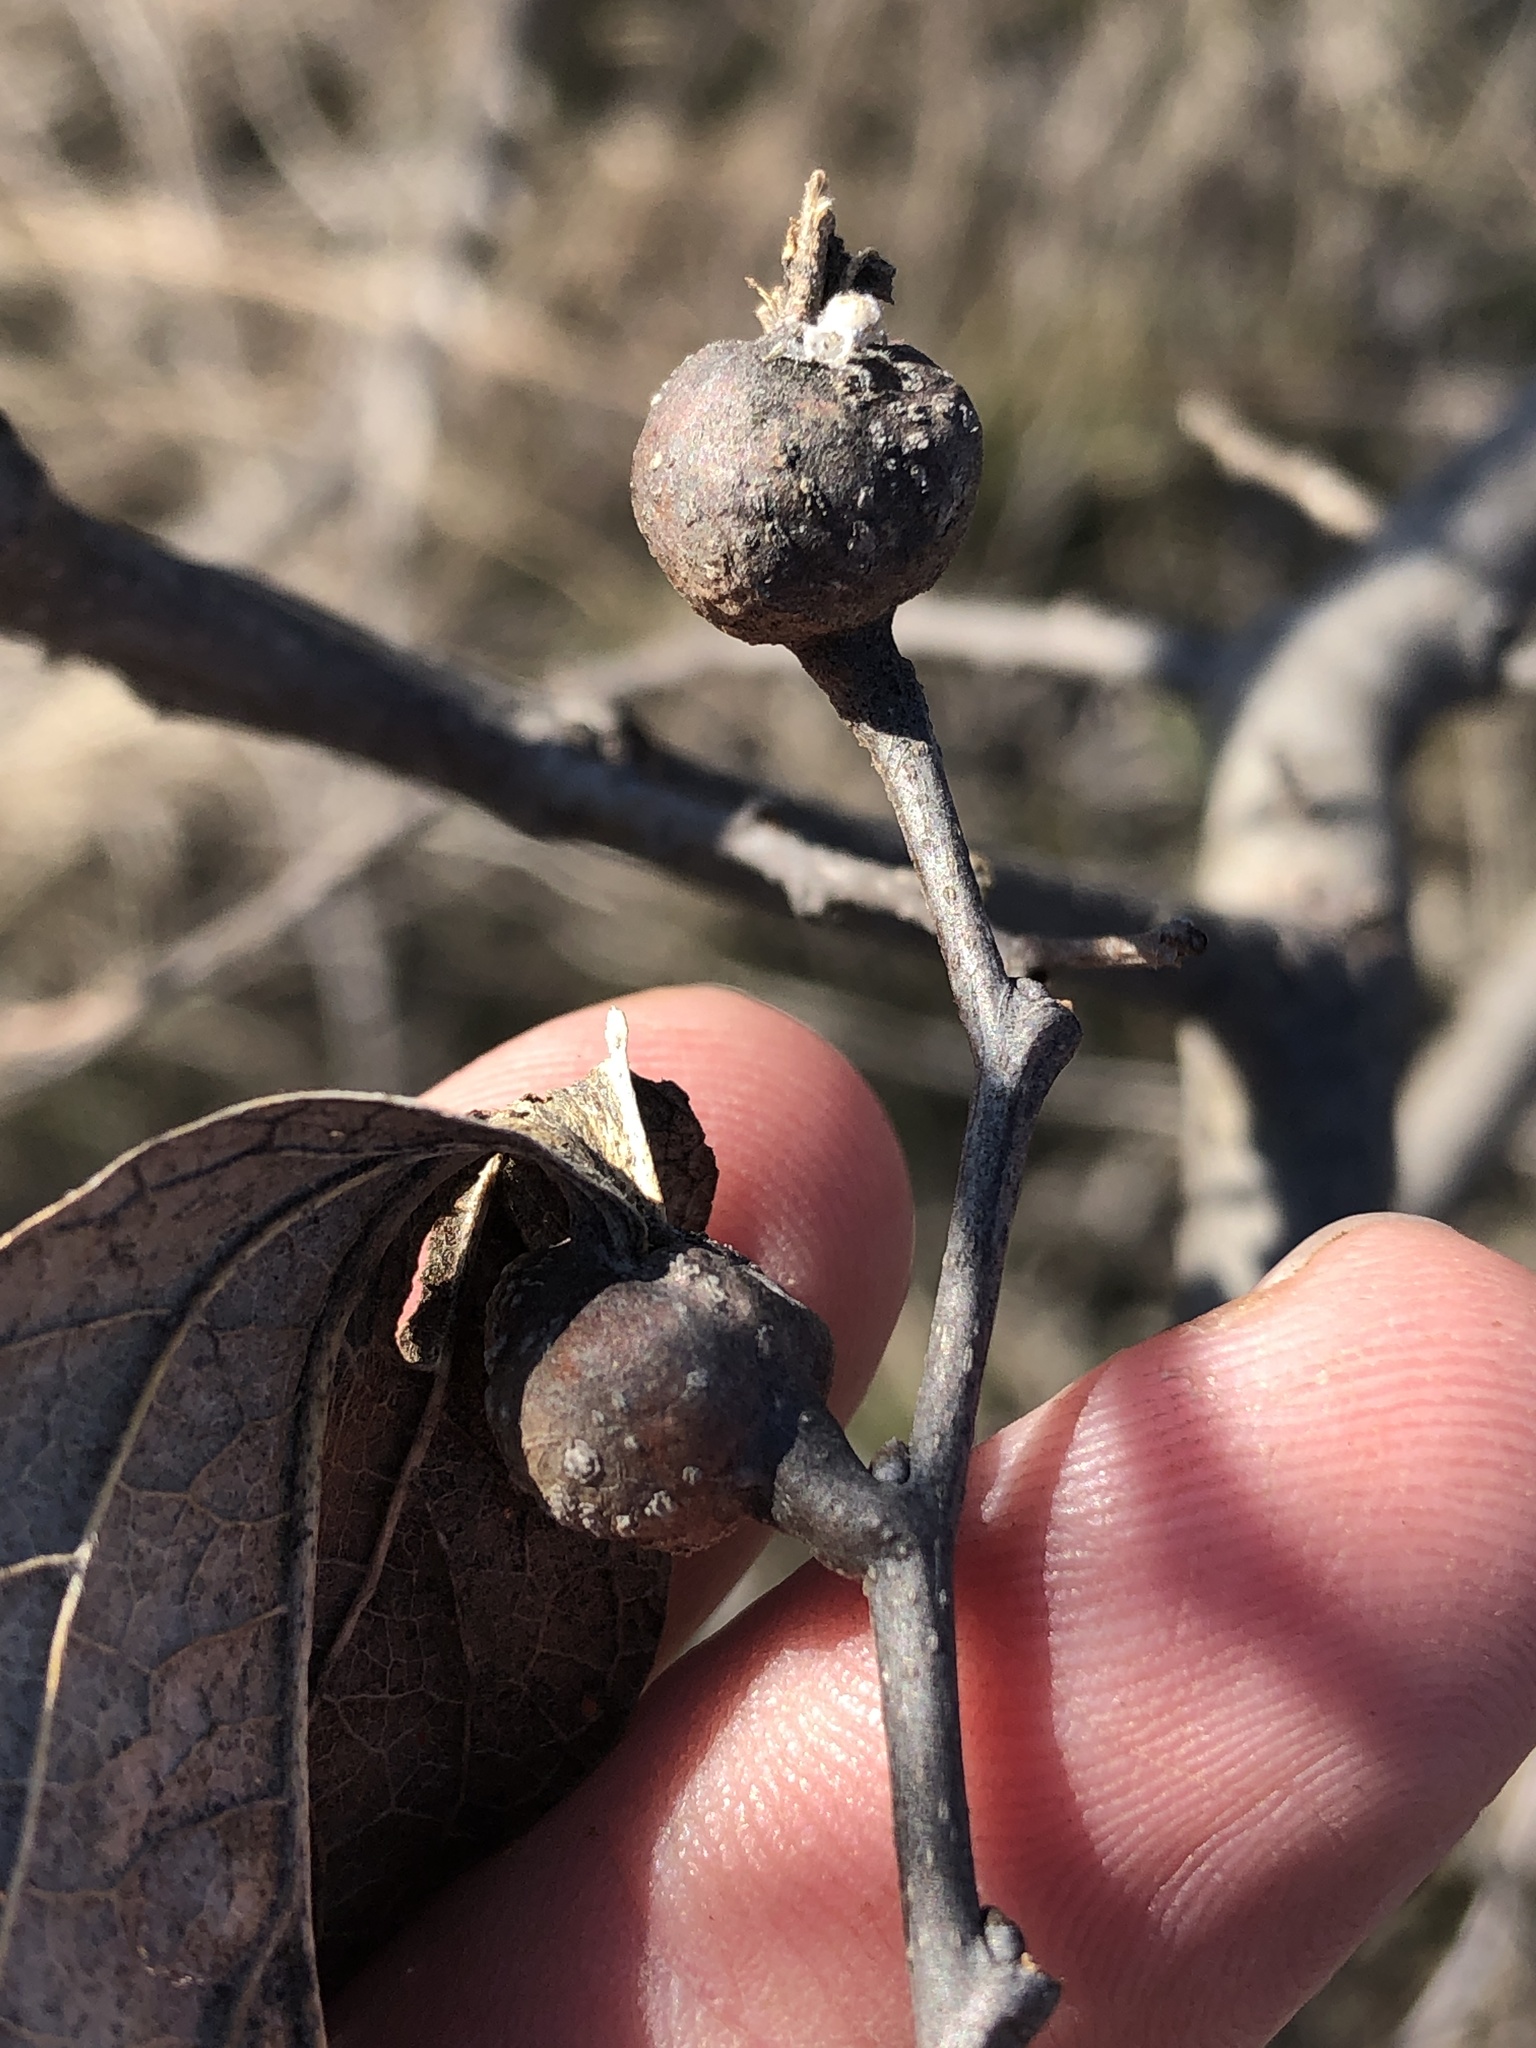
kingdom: Animalia
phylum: Arthropoda
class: Insecta
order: Hemiptera
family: Aphalaridae
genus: Pachypsylla
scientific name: Pachypsylla venusta
